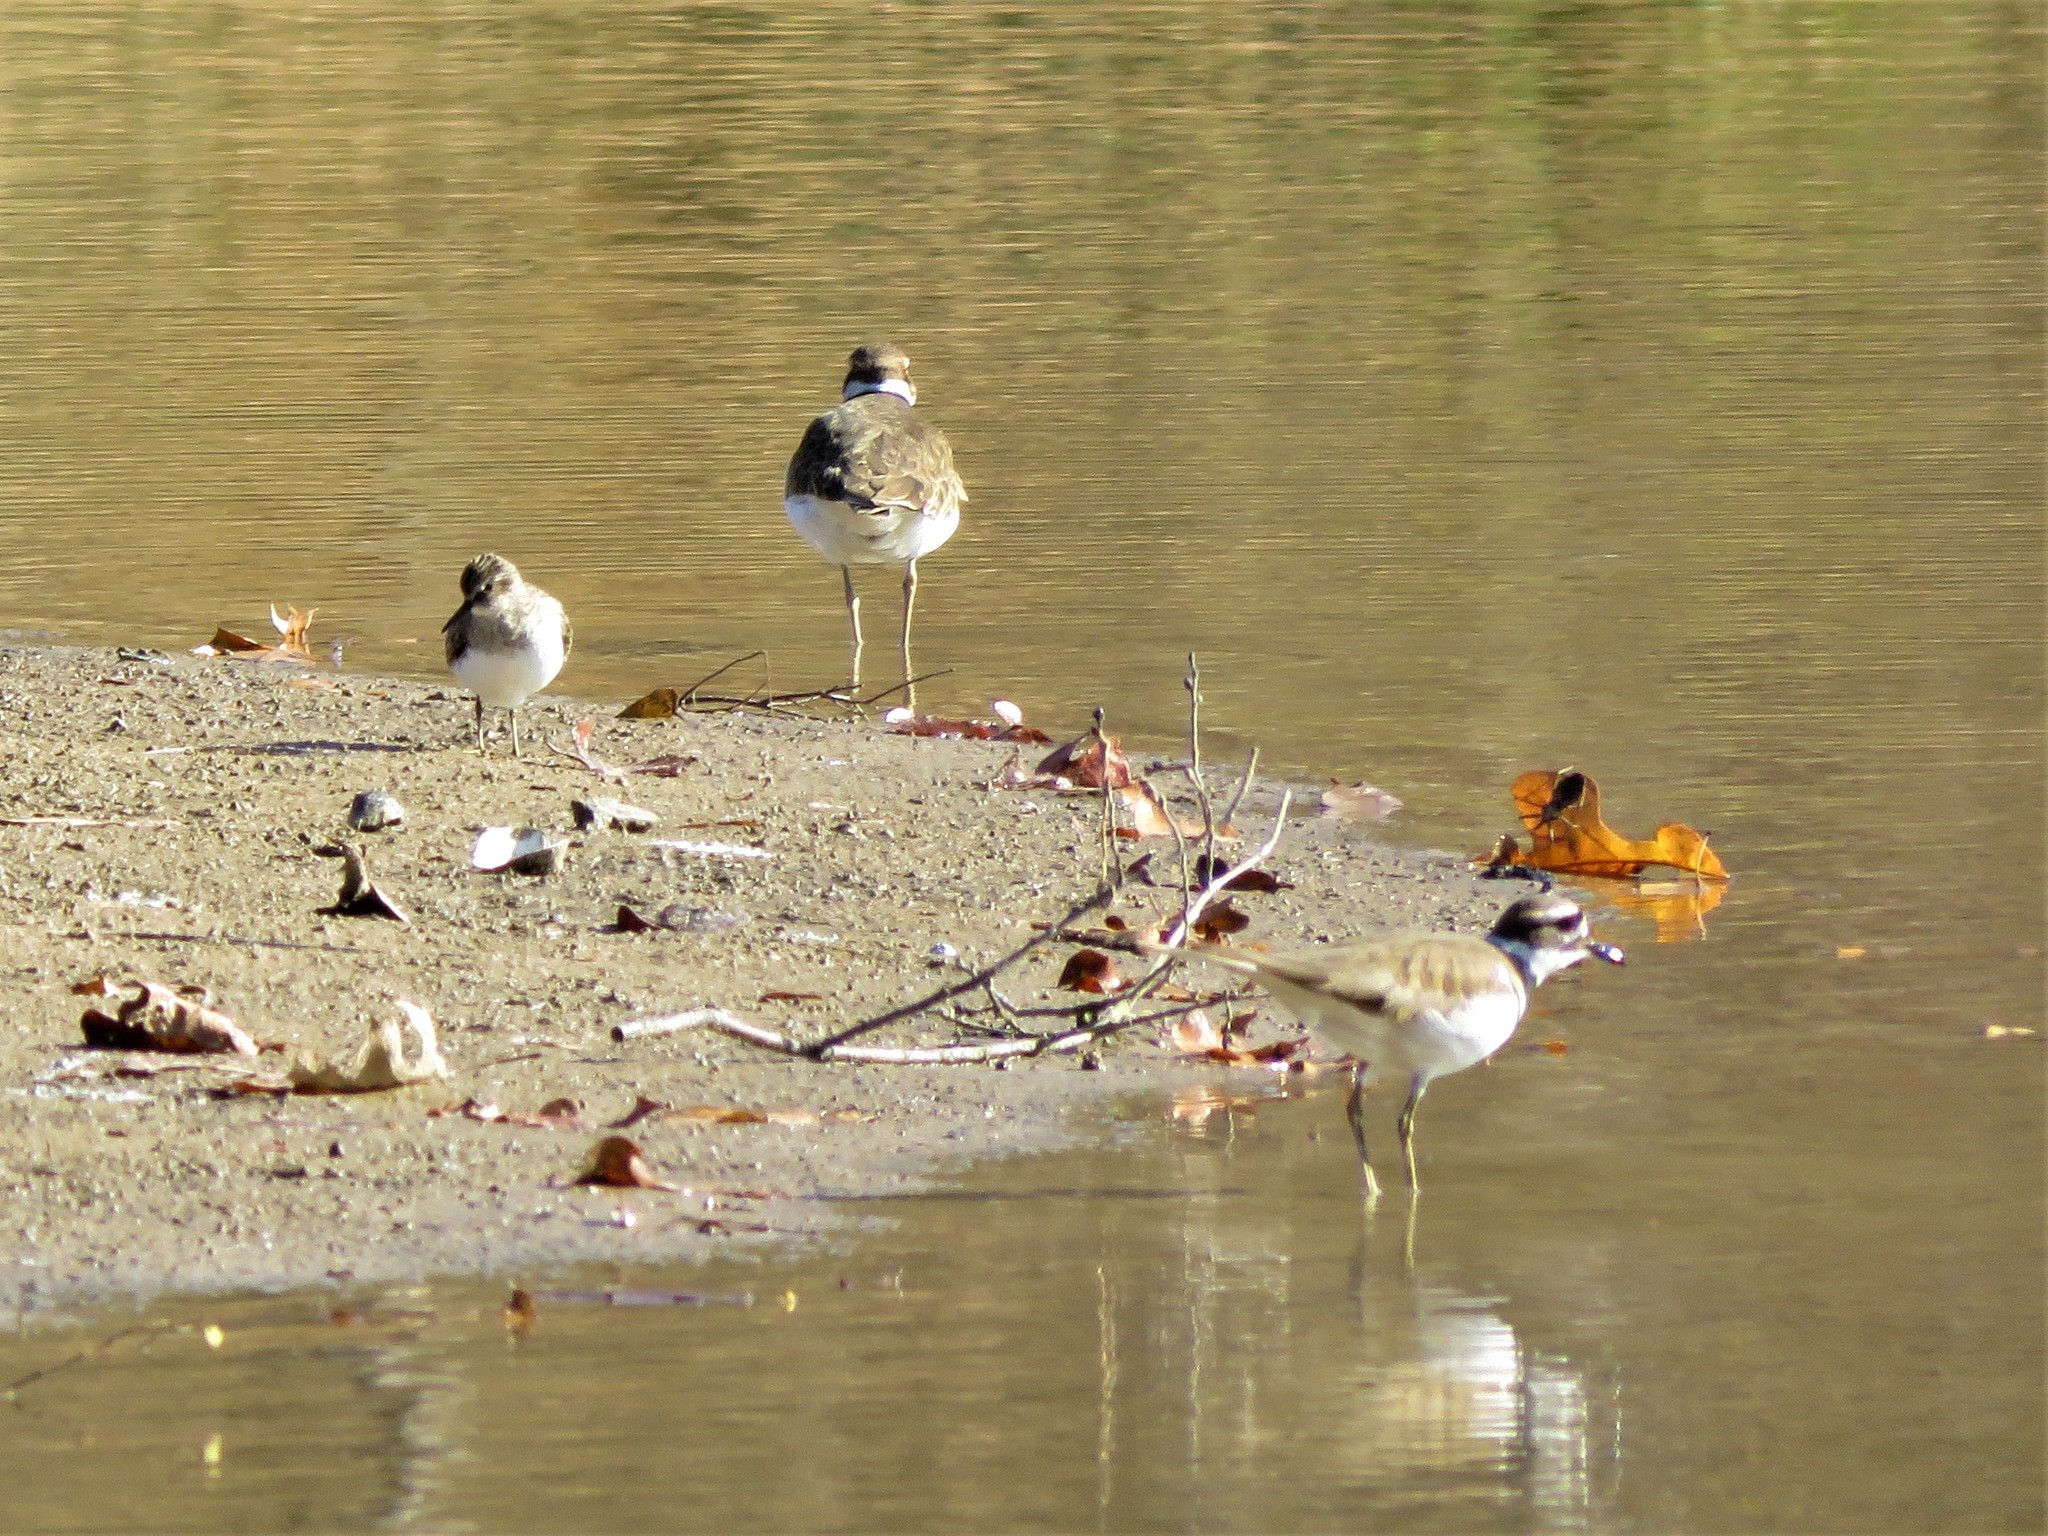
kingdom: Animalia
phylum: Chordata
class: Aves
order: Charadriiformes
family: Charadriidae
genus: Charadrius
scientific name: Charadrius vociferus
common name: Killdeer
